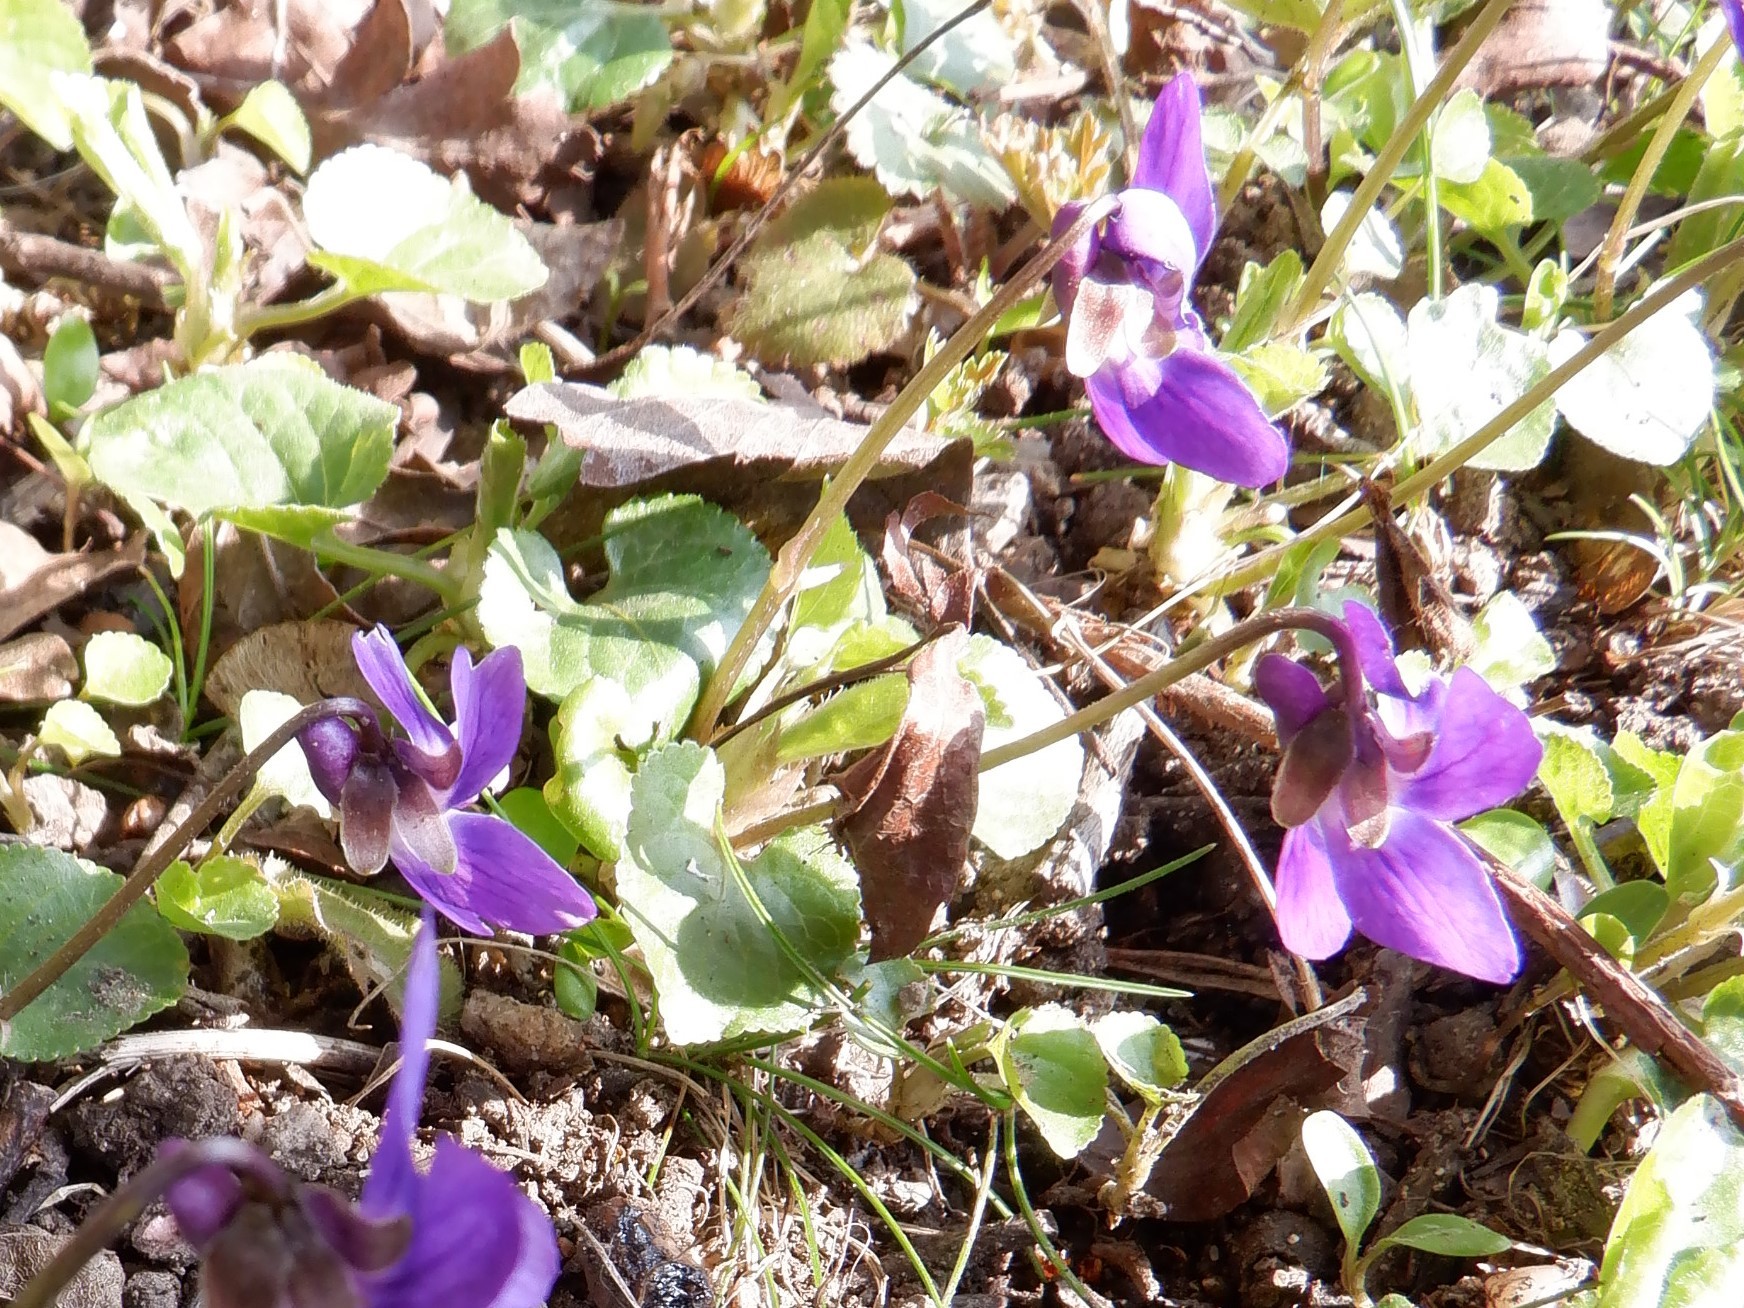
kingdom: Plantae
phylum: Tracheophyta
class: Magnoliopsida
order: Malpighiales
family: Violaceae
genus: Viola
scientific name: Viola odorata
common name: Sweet violet
